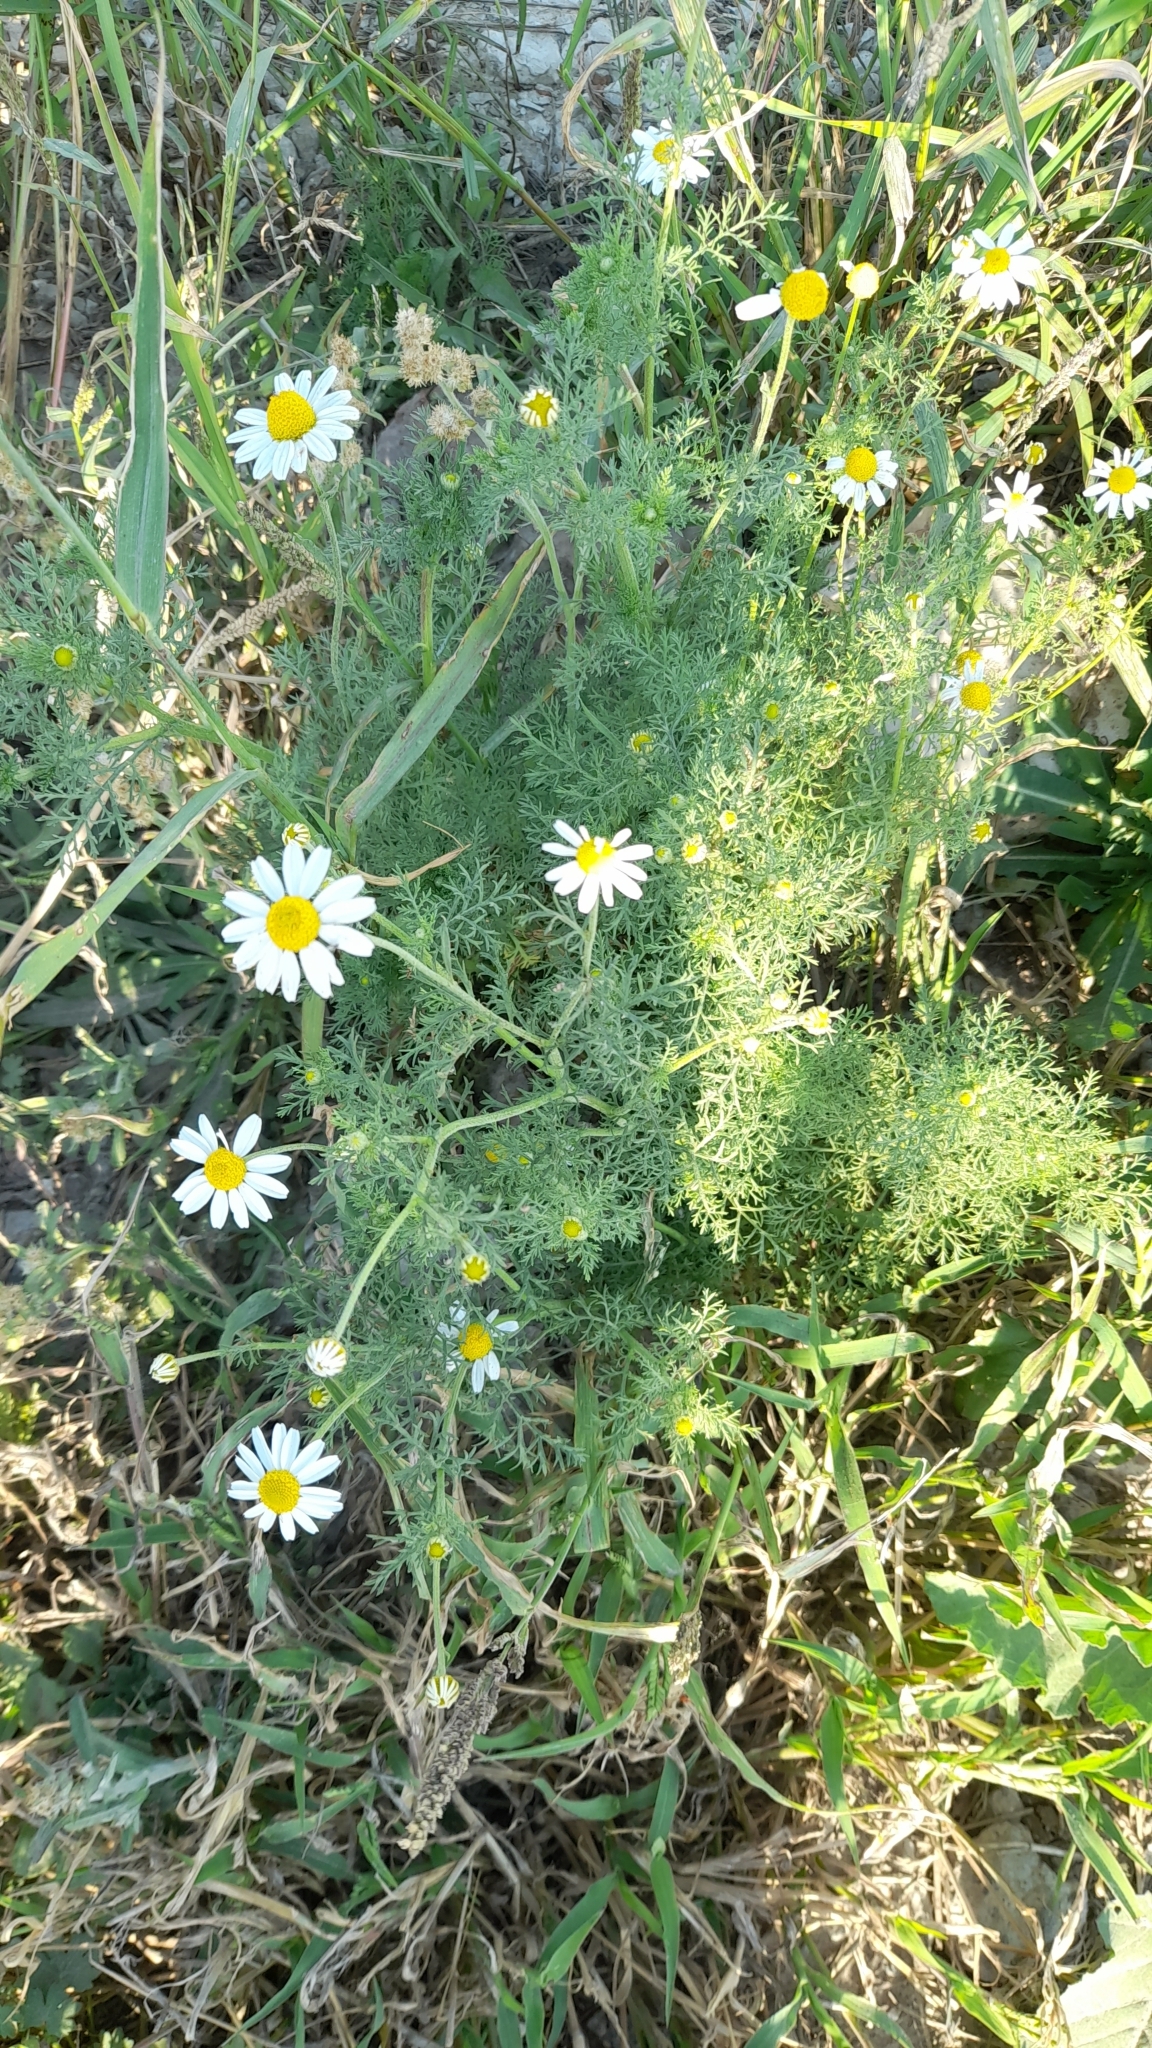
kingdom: Plantae
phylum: Tracheophyta
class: Magnoliopsida
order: Asterales
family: Asteraceae
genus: Matricaria
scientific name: Matricaria chamomilla
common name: Scented mayweed
